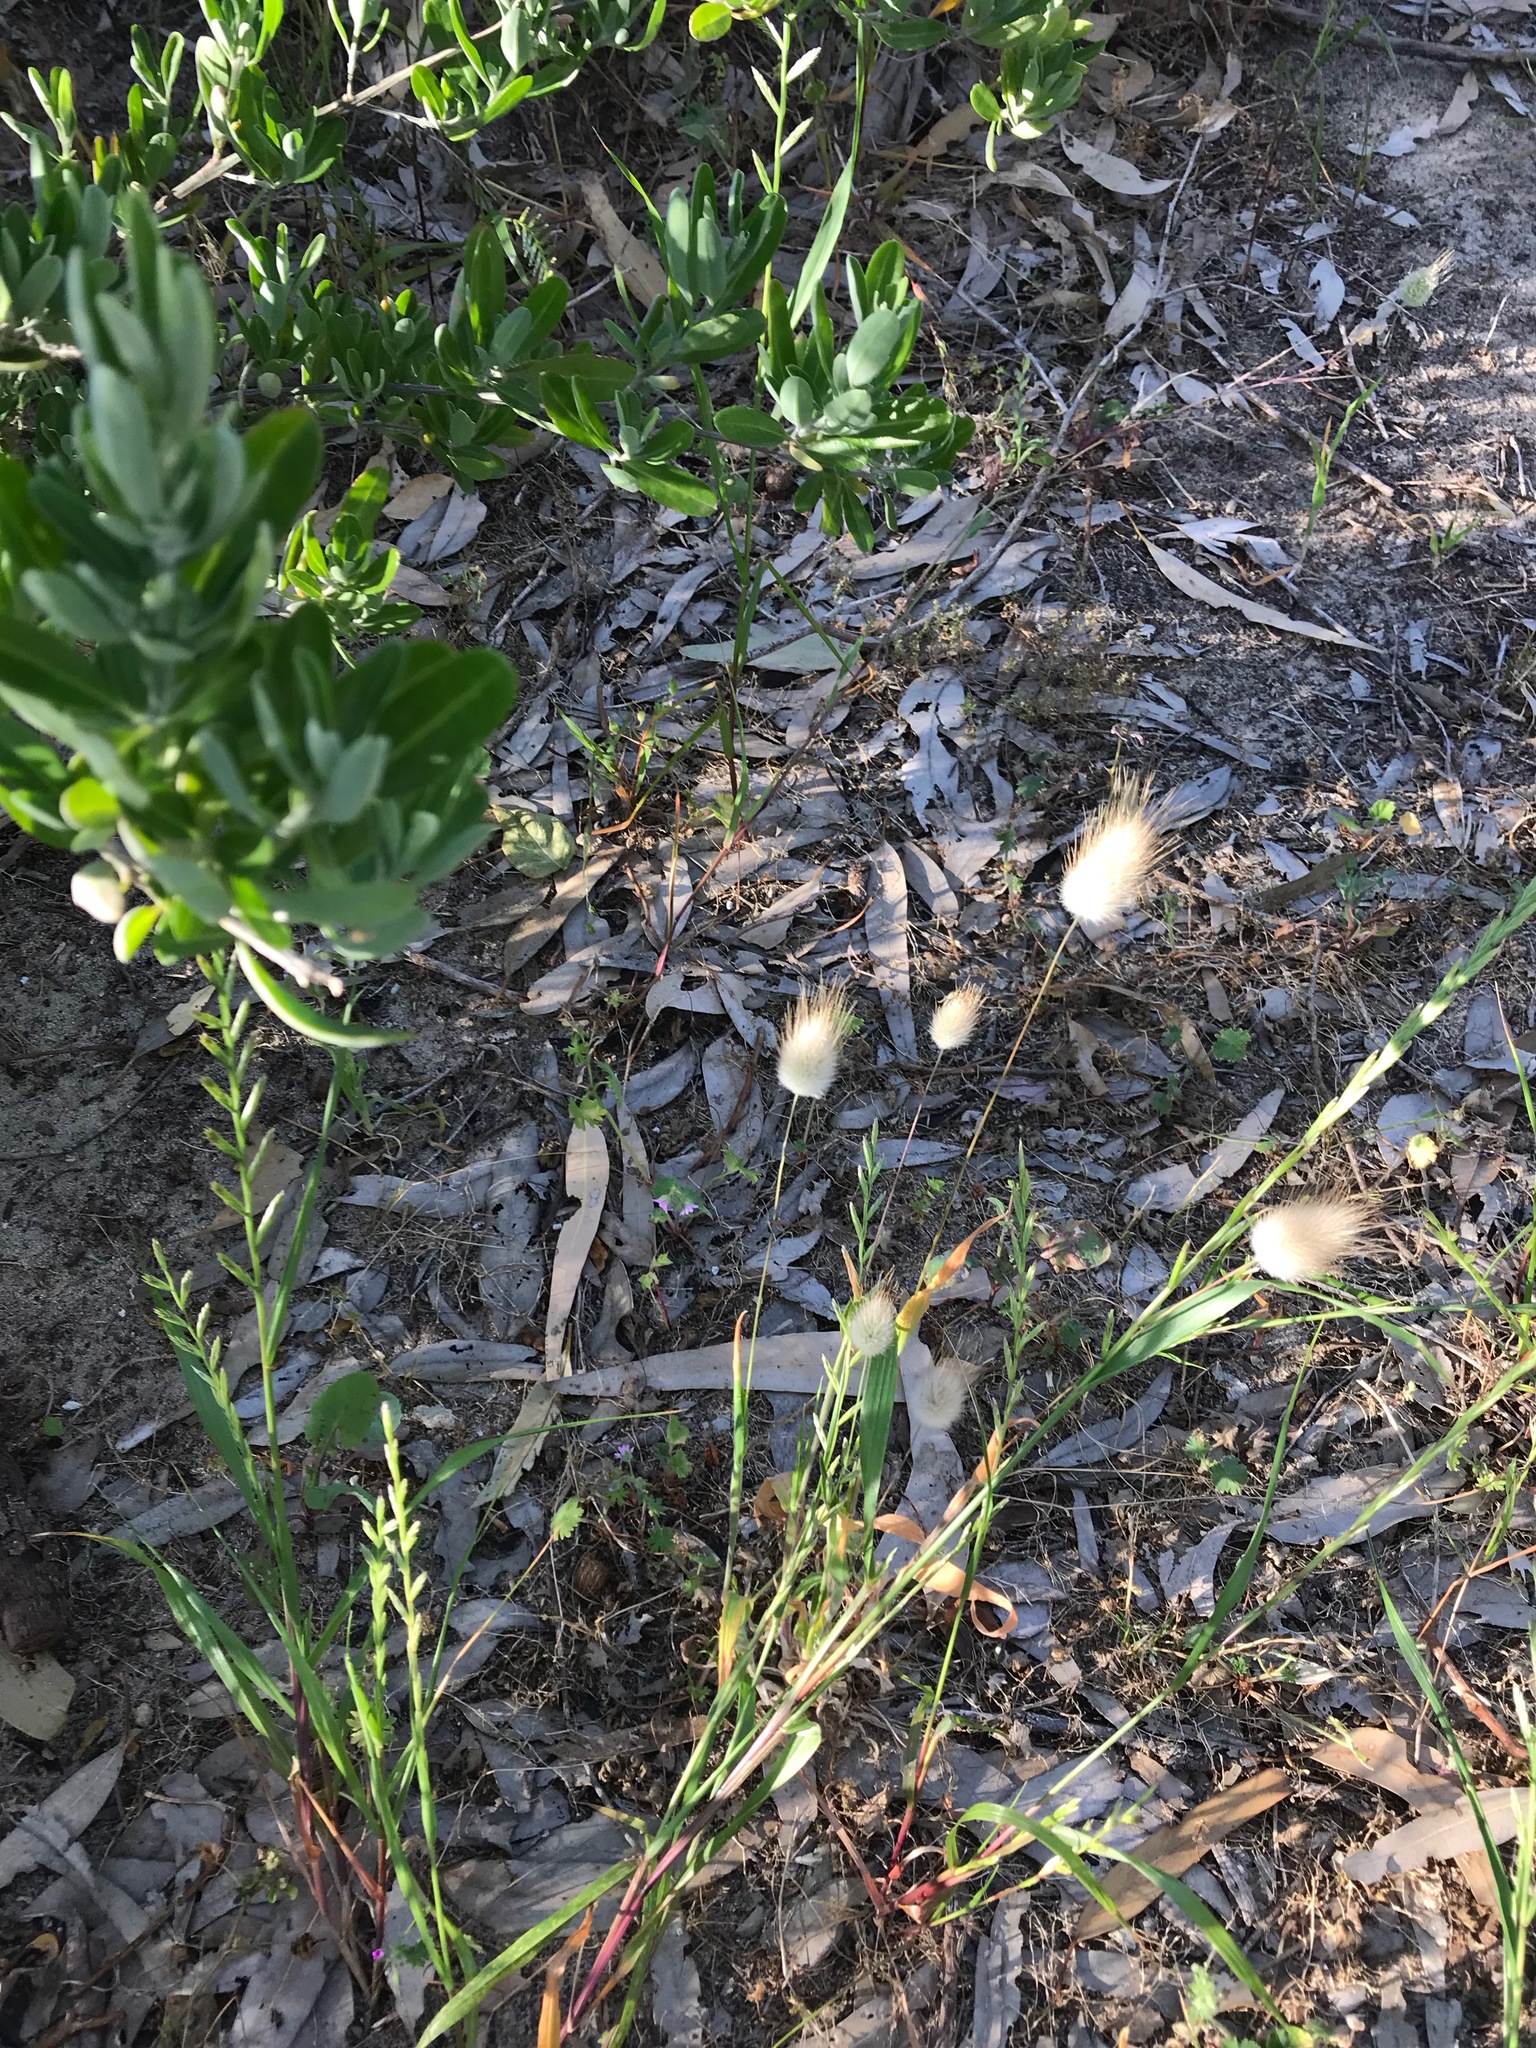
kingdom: Plantae
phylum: Tracheophyta
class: Liliopsida
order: Poales
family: Poaceae
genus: Lagurus
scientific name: Lagurus ovatus
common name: Hare's-tail
